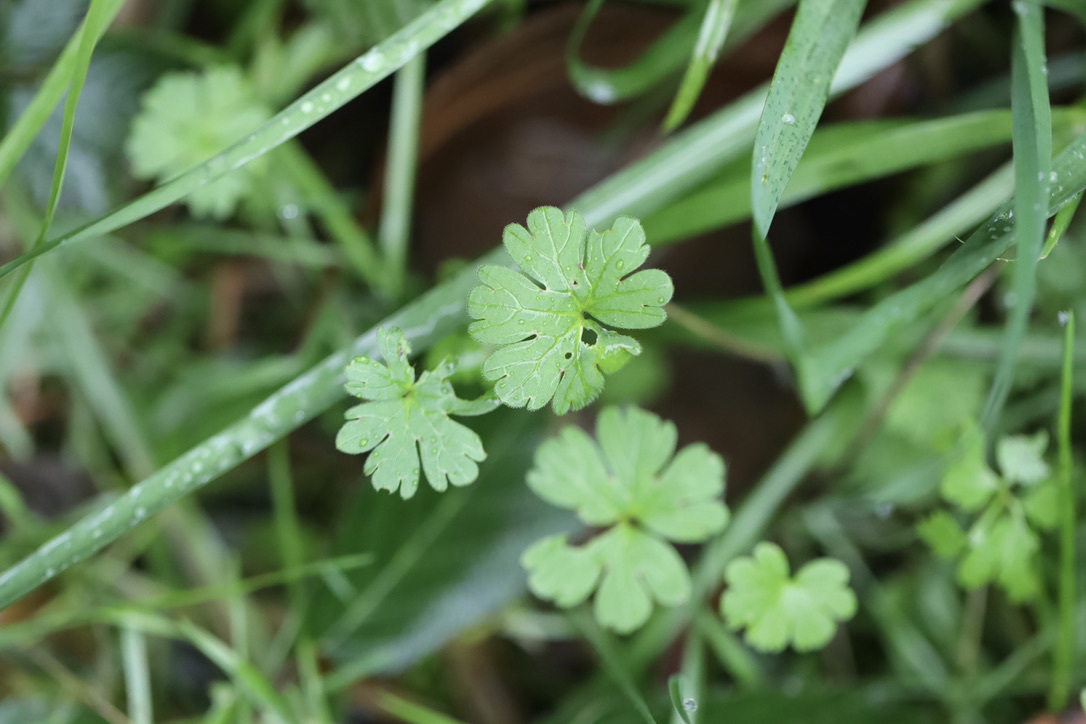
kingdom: Plantae
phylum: Tracheophyta
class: Magnoliopsida
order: Geraniales
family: Geraniaceae
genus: Geranium
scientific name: Geranium lucidum
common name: Shining crane's-bill
